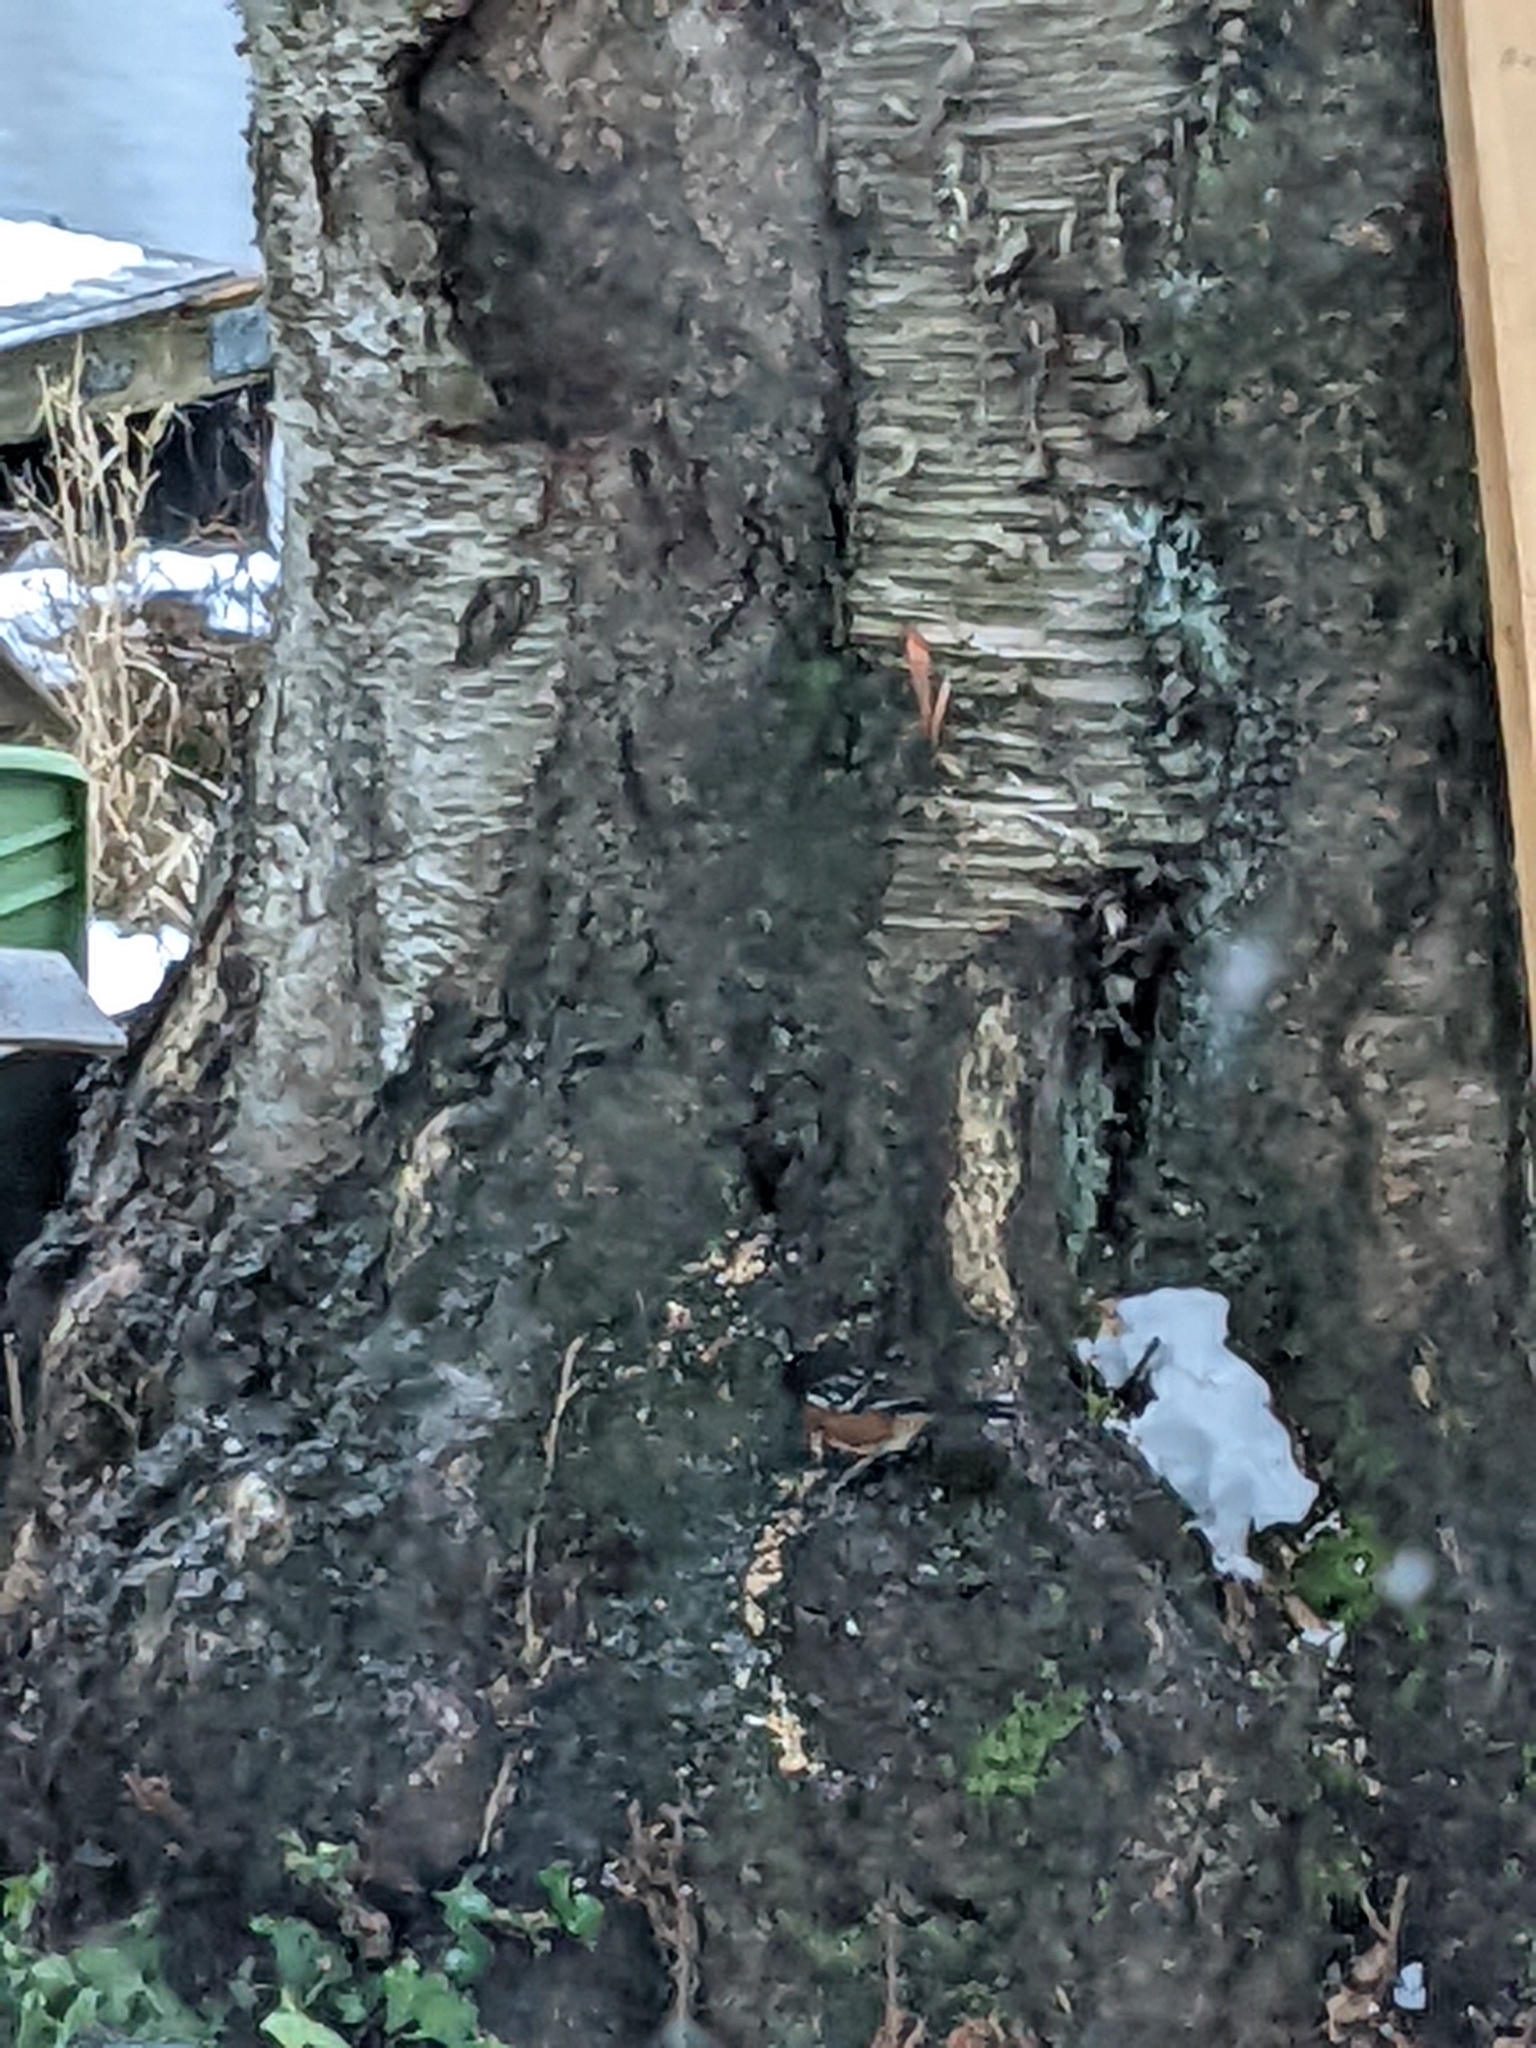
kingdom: Animalia
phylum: Chordata
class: Aves
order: Passeriformes
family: Passerellidae
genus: Pipilo
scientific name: Pipilo maculatus
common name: Spotted towhee
